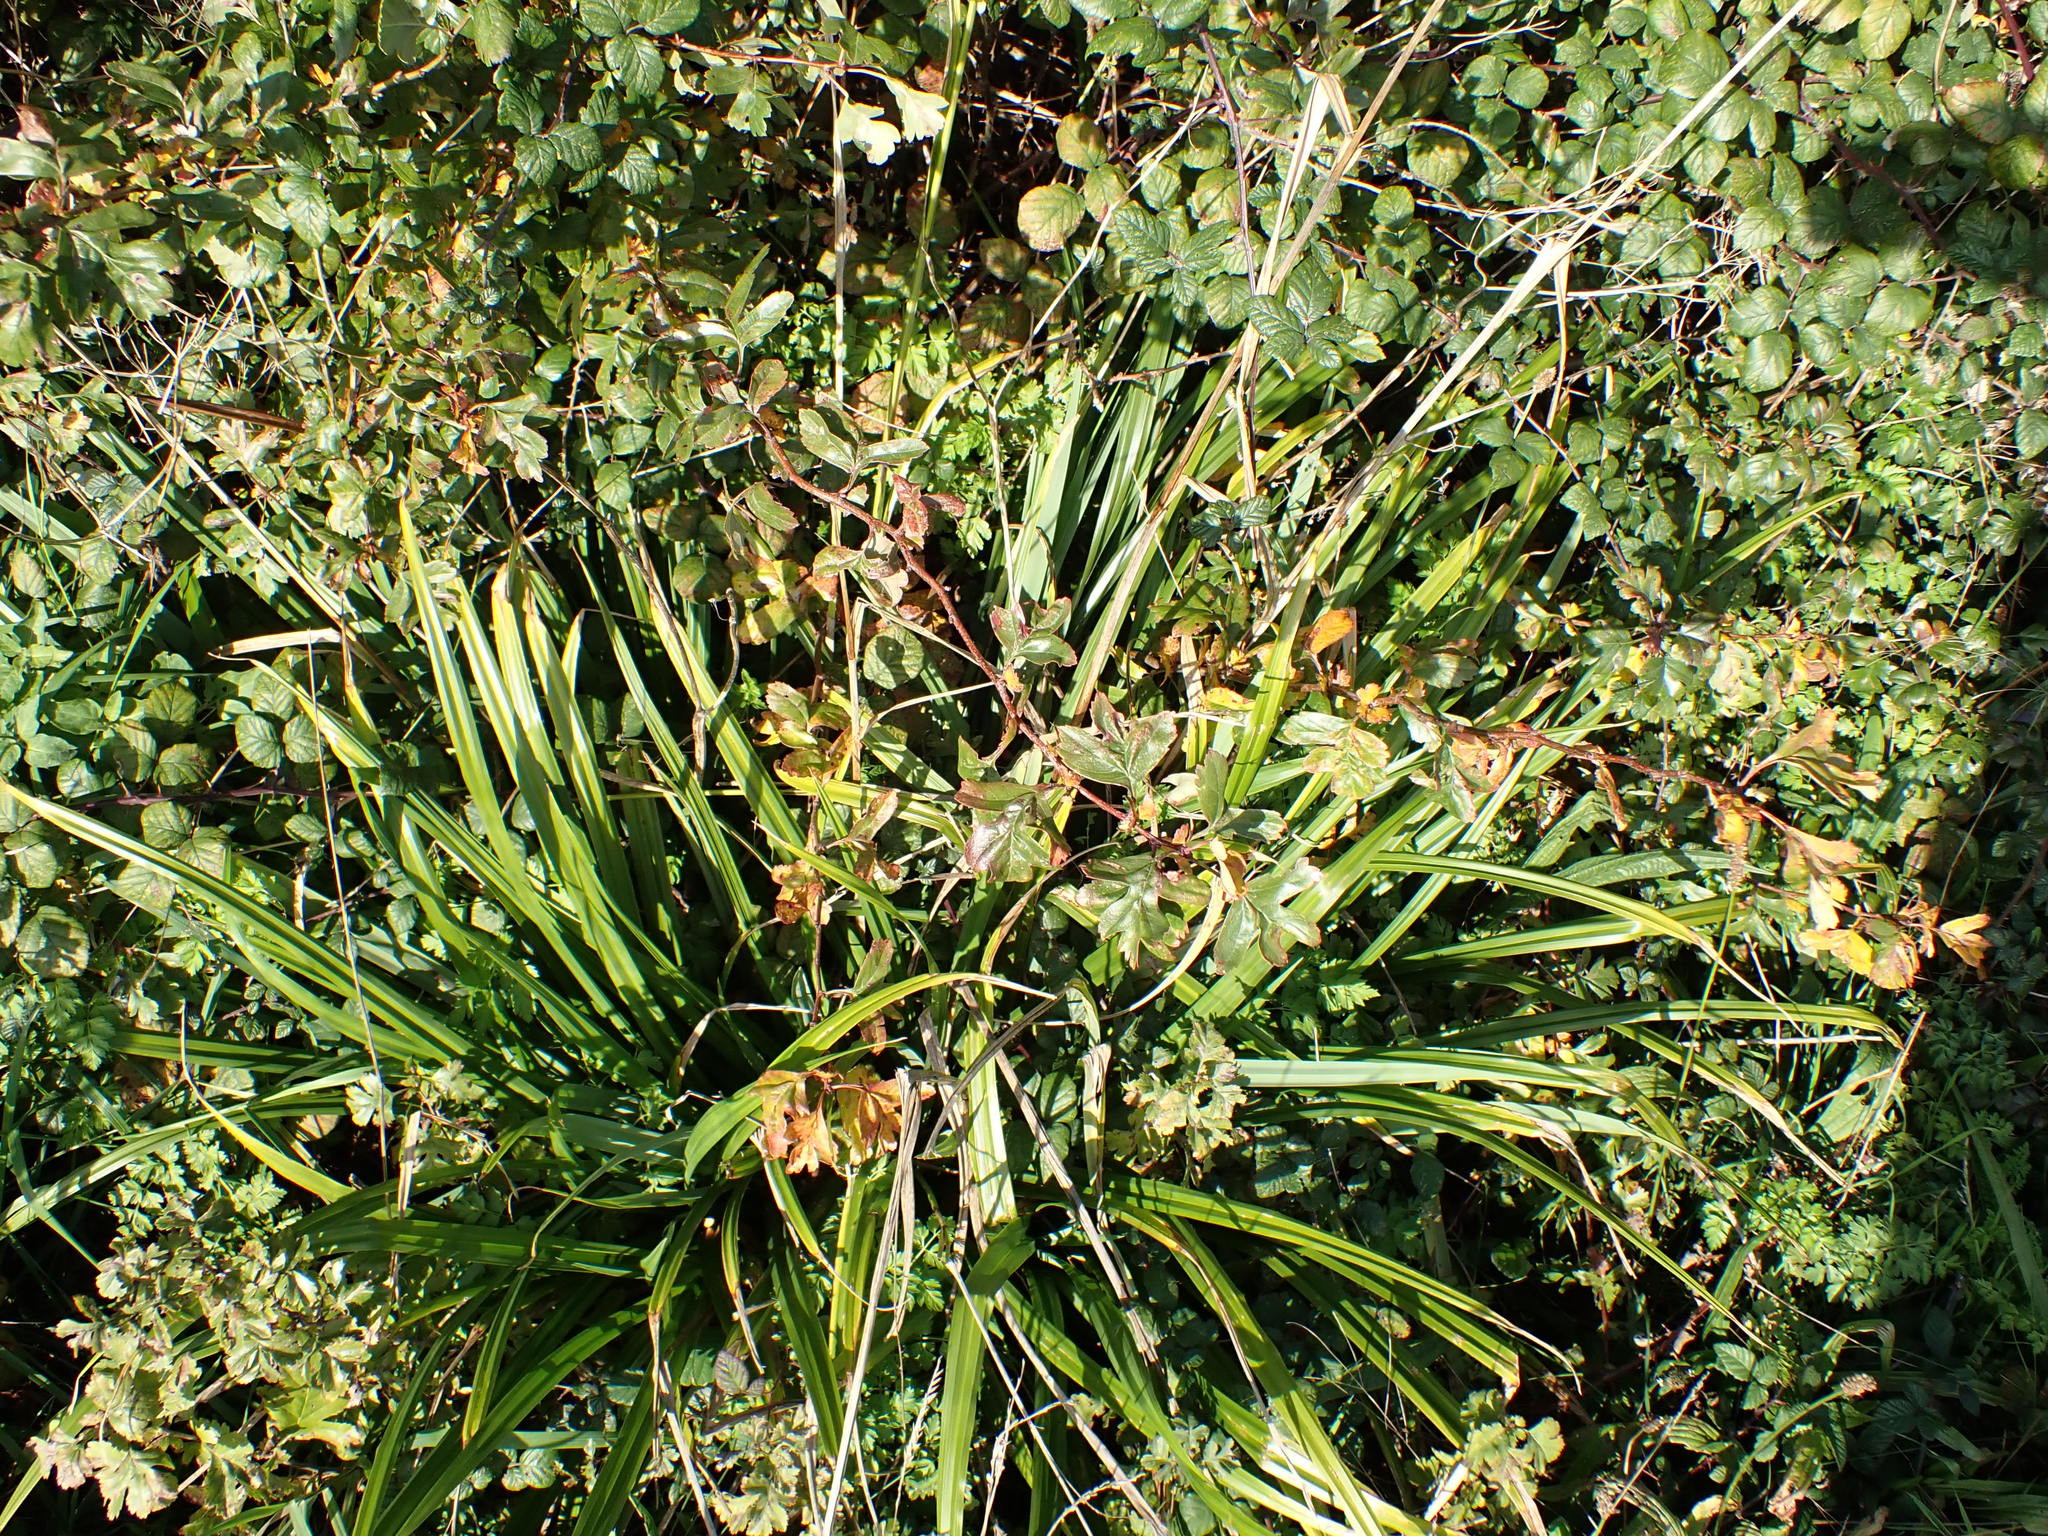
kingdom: Plantae
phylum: Tracheophyta
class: Liliopsida
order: Poales
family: Cyperaceae
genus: Carex
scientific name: Carex pendula
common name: Pendulous sedge
